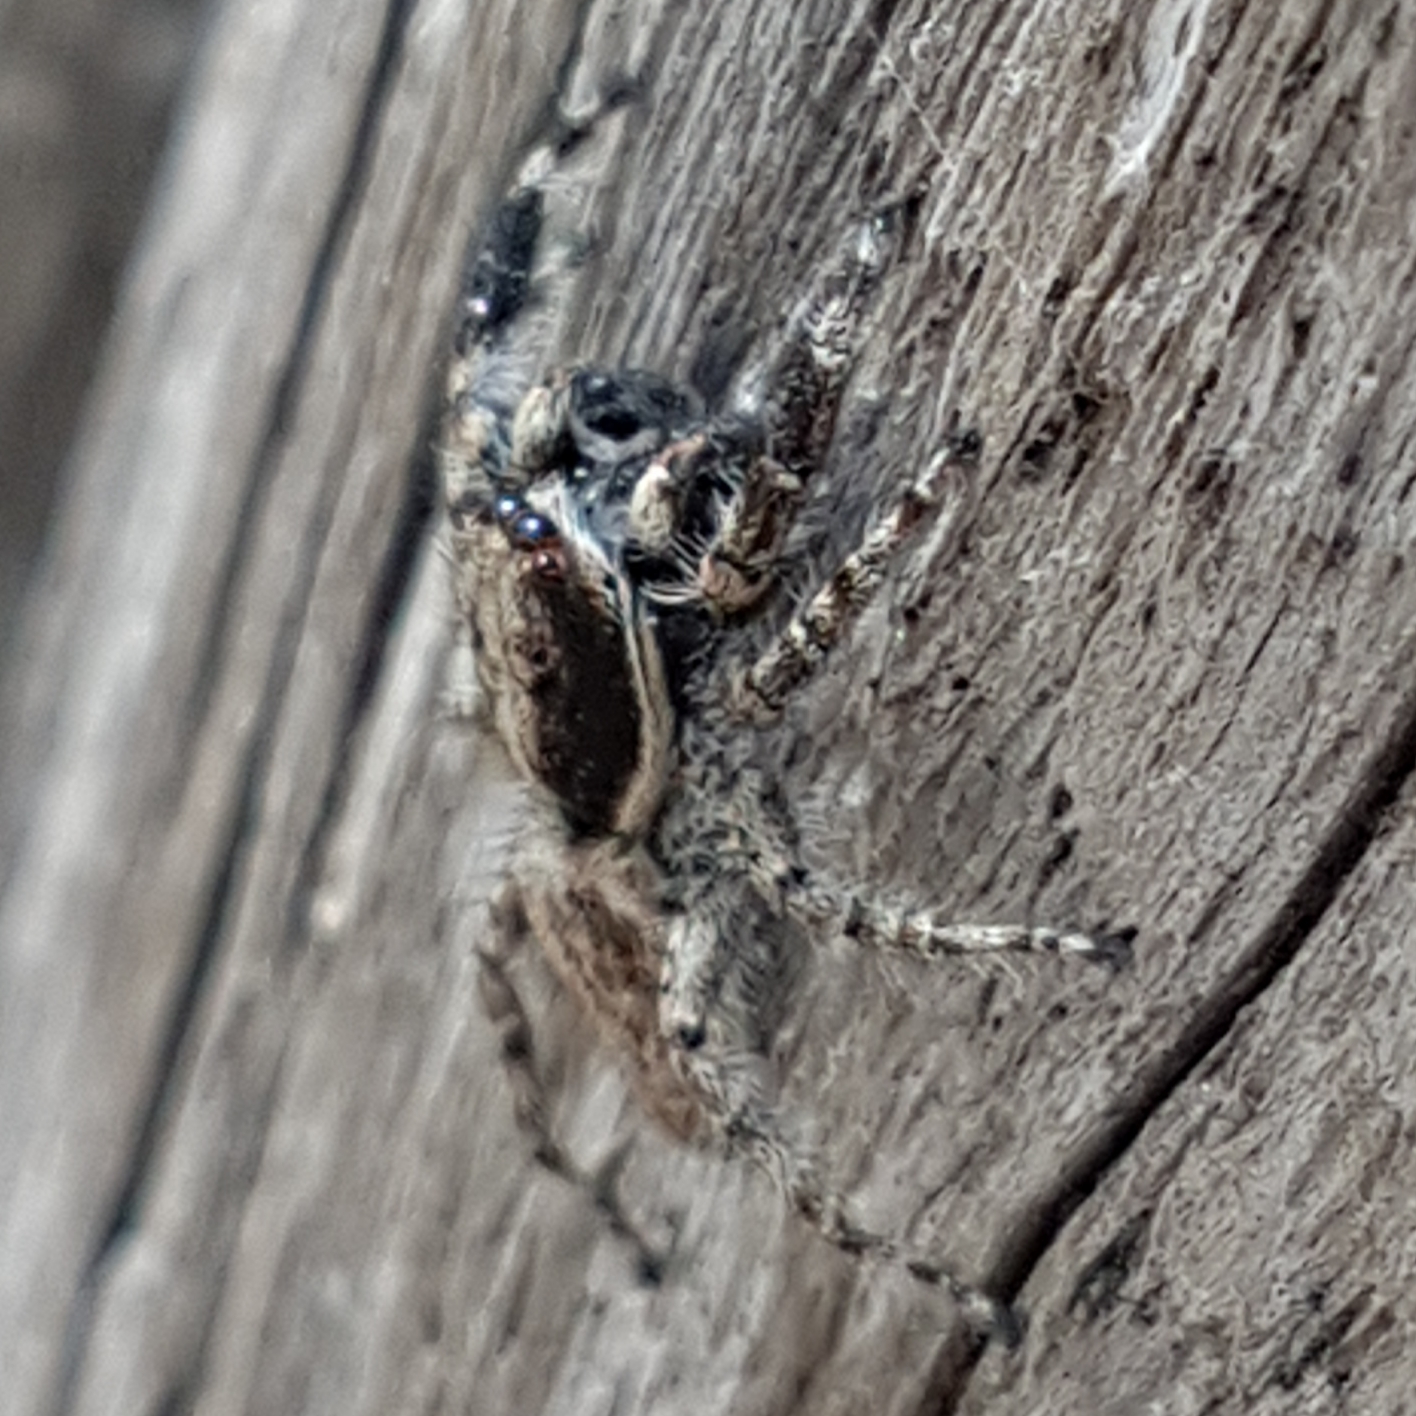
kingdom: Animalia
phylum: Arthropoda
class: Arachnida
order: Araneae
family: Salticidae
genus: Menemerus
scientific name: Menemerus semilimbatus
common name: Jumping spider
